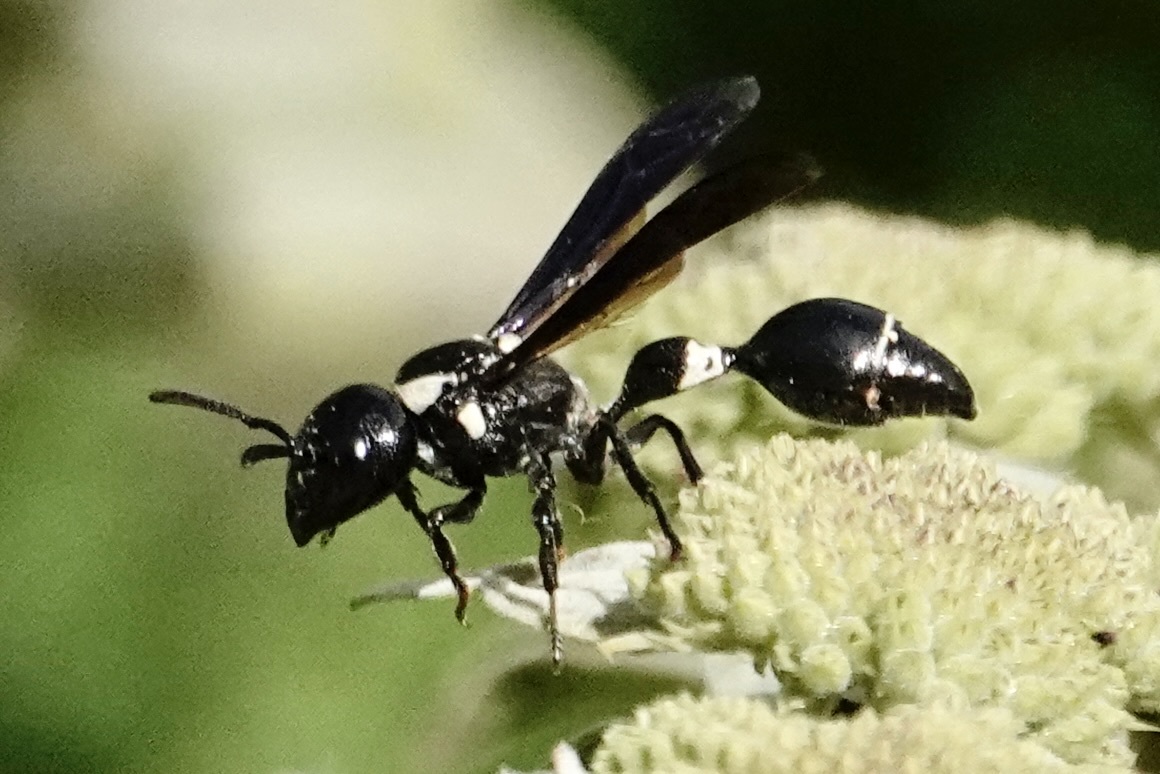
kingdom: Animalia
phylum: Arthropoda
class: Insecta
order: Hymenoptera
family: Eumenidae
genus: Zethus
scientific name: Zethus spinipes
